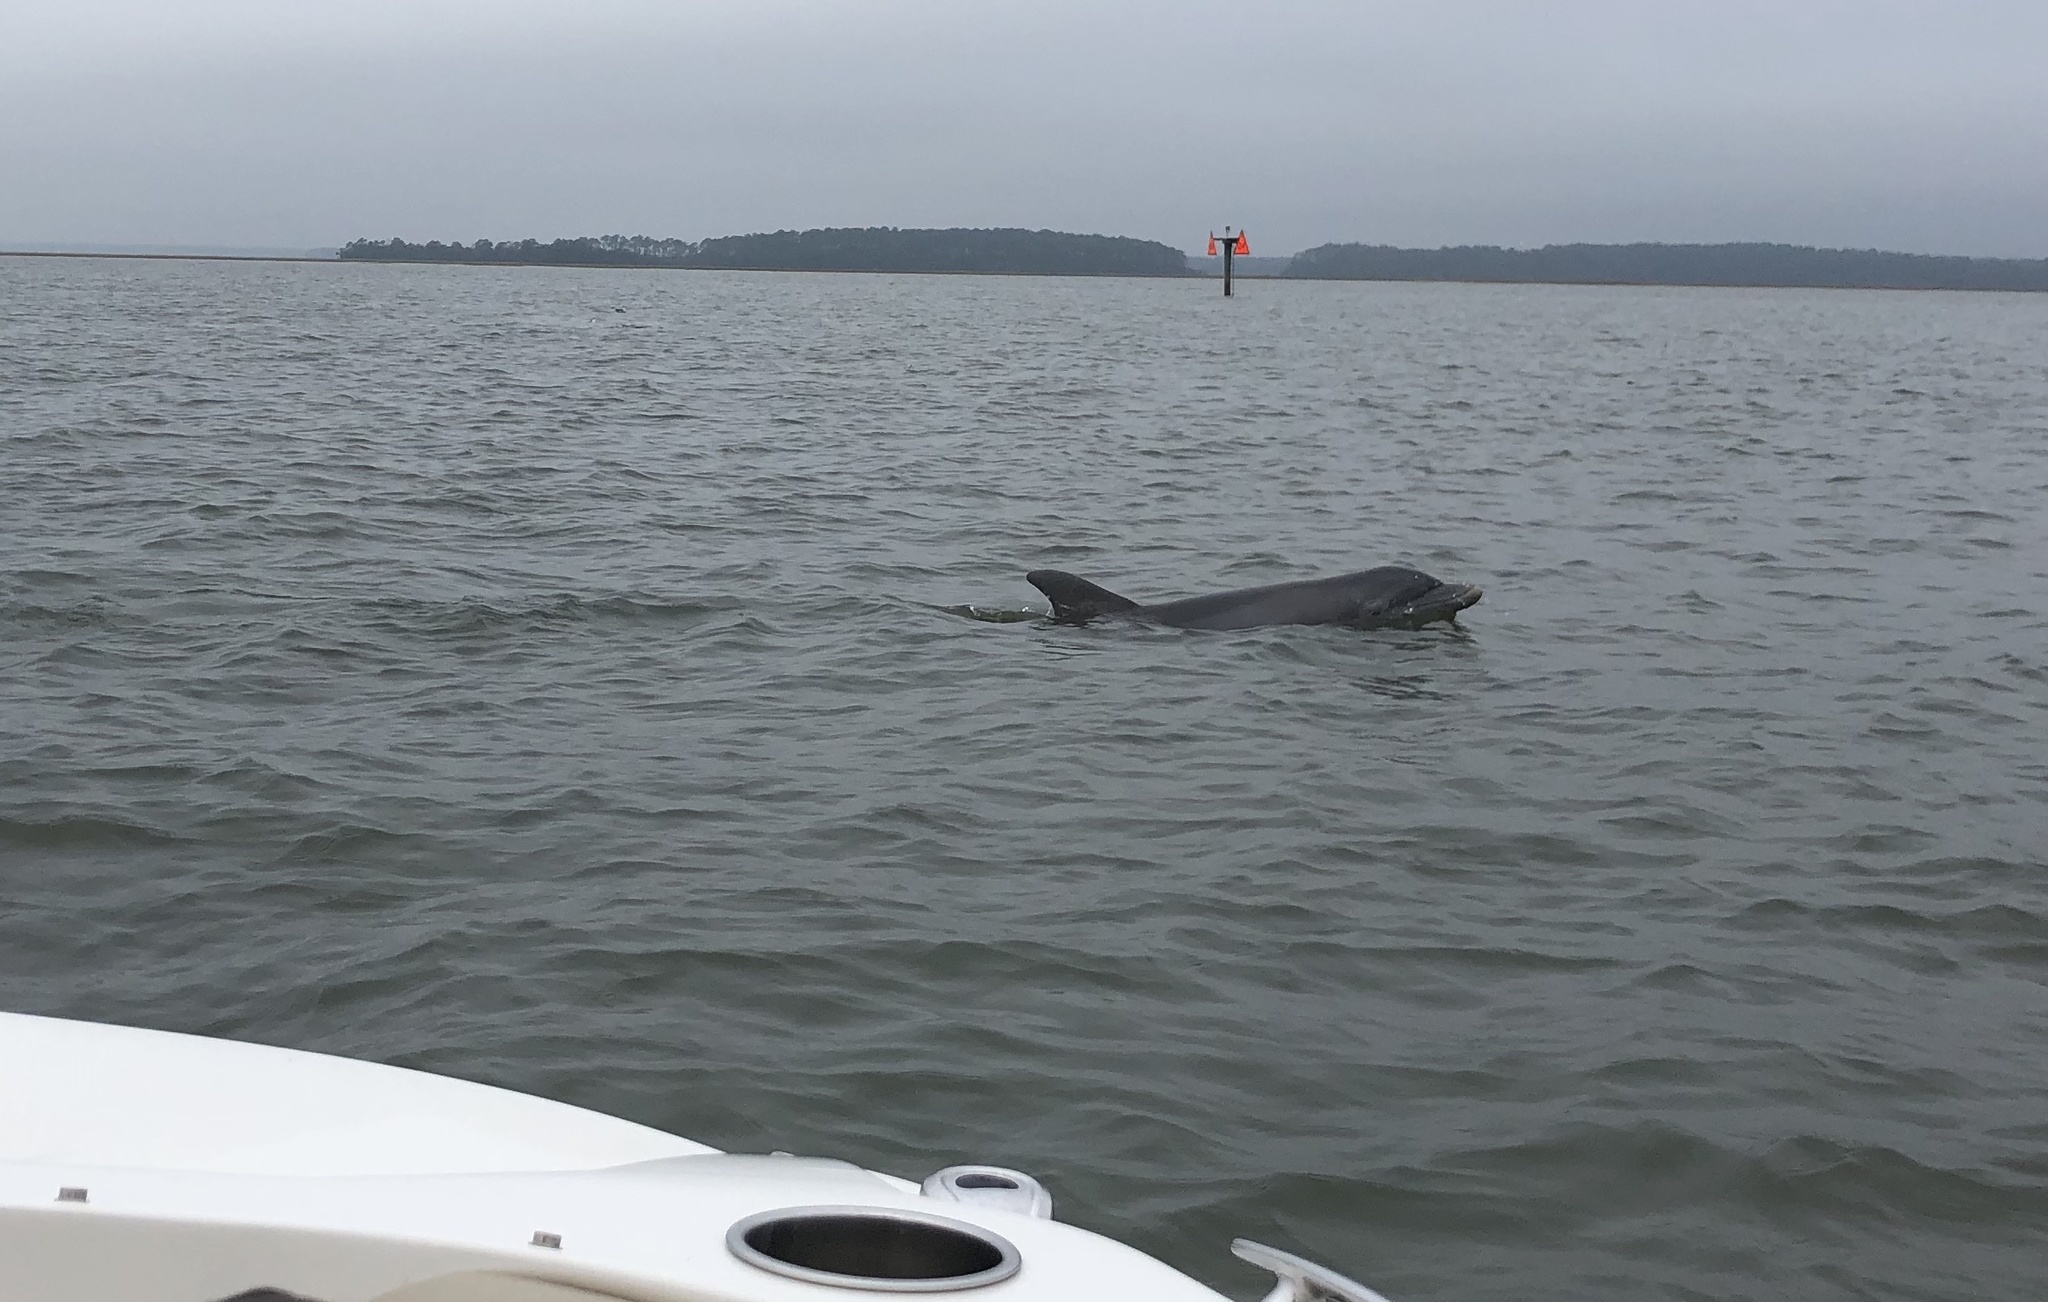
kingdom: Animalia
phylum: Chordata
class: Mammalia
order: Cetacea
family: Delphinidae
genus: Tursiops
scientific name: Tursiops truncatus
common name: Bottlenose dolphin
